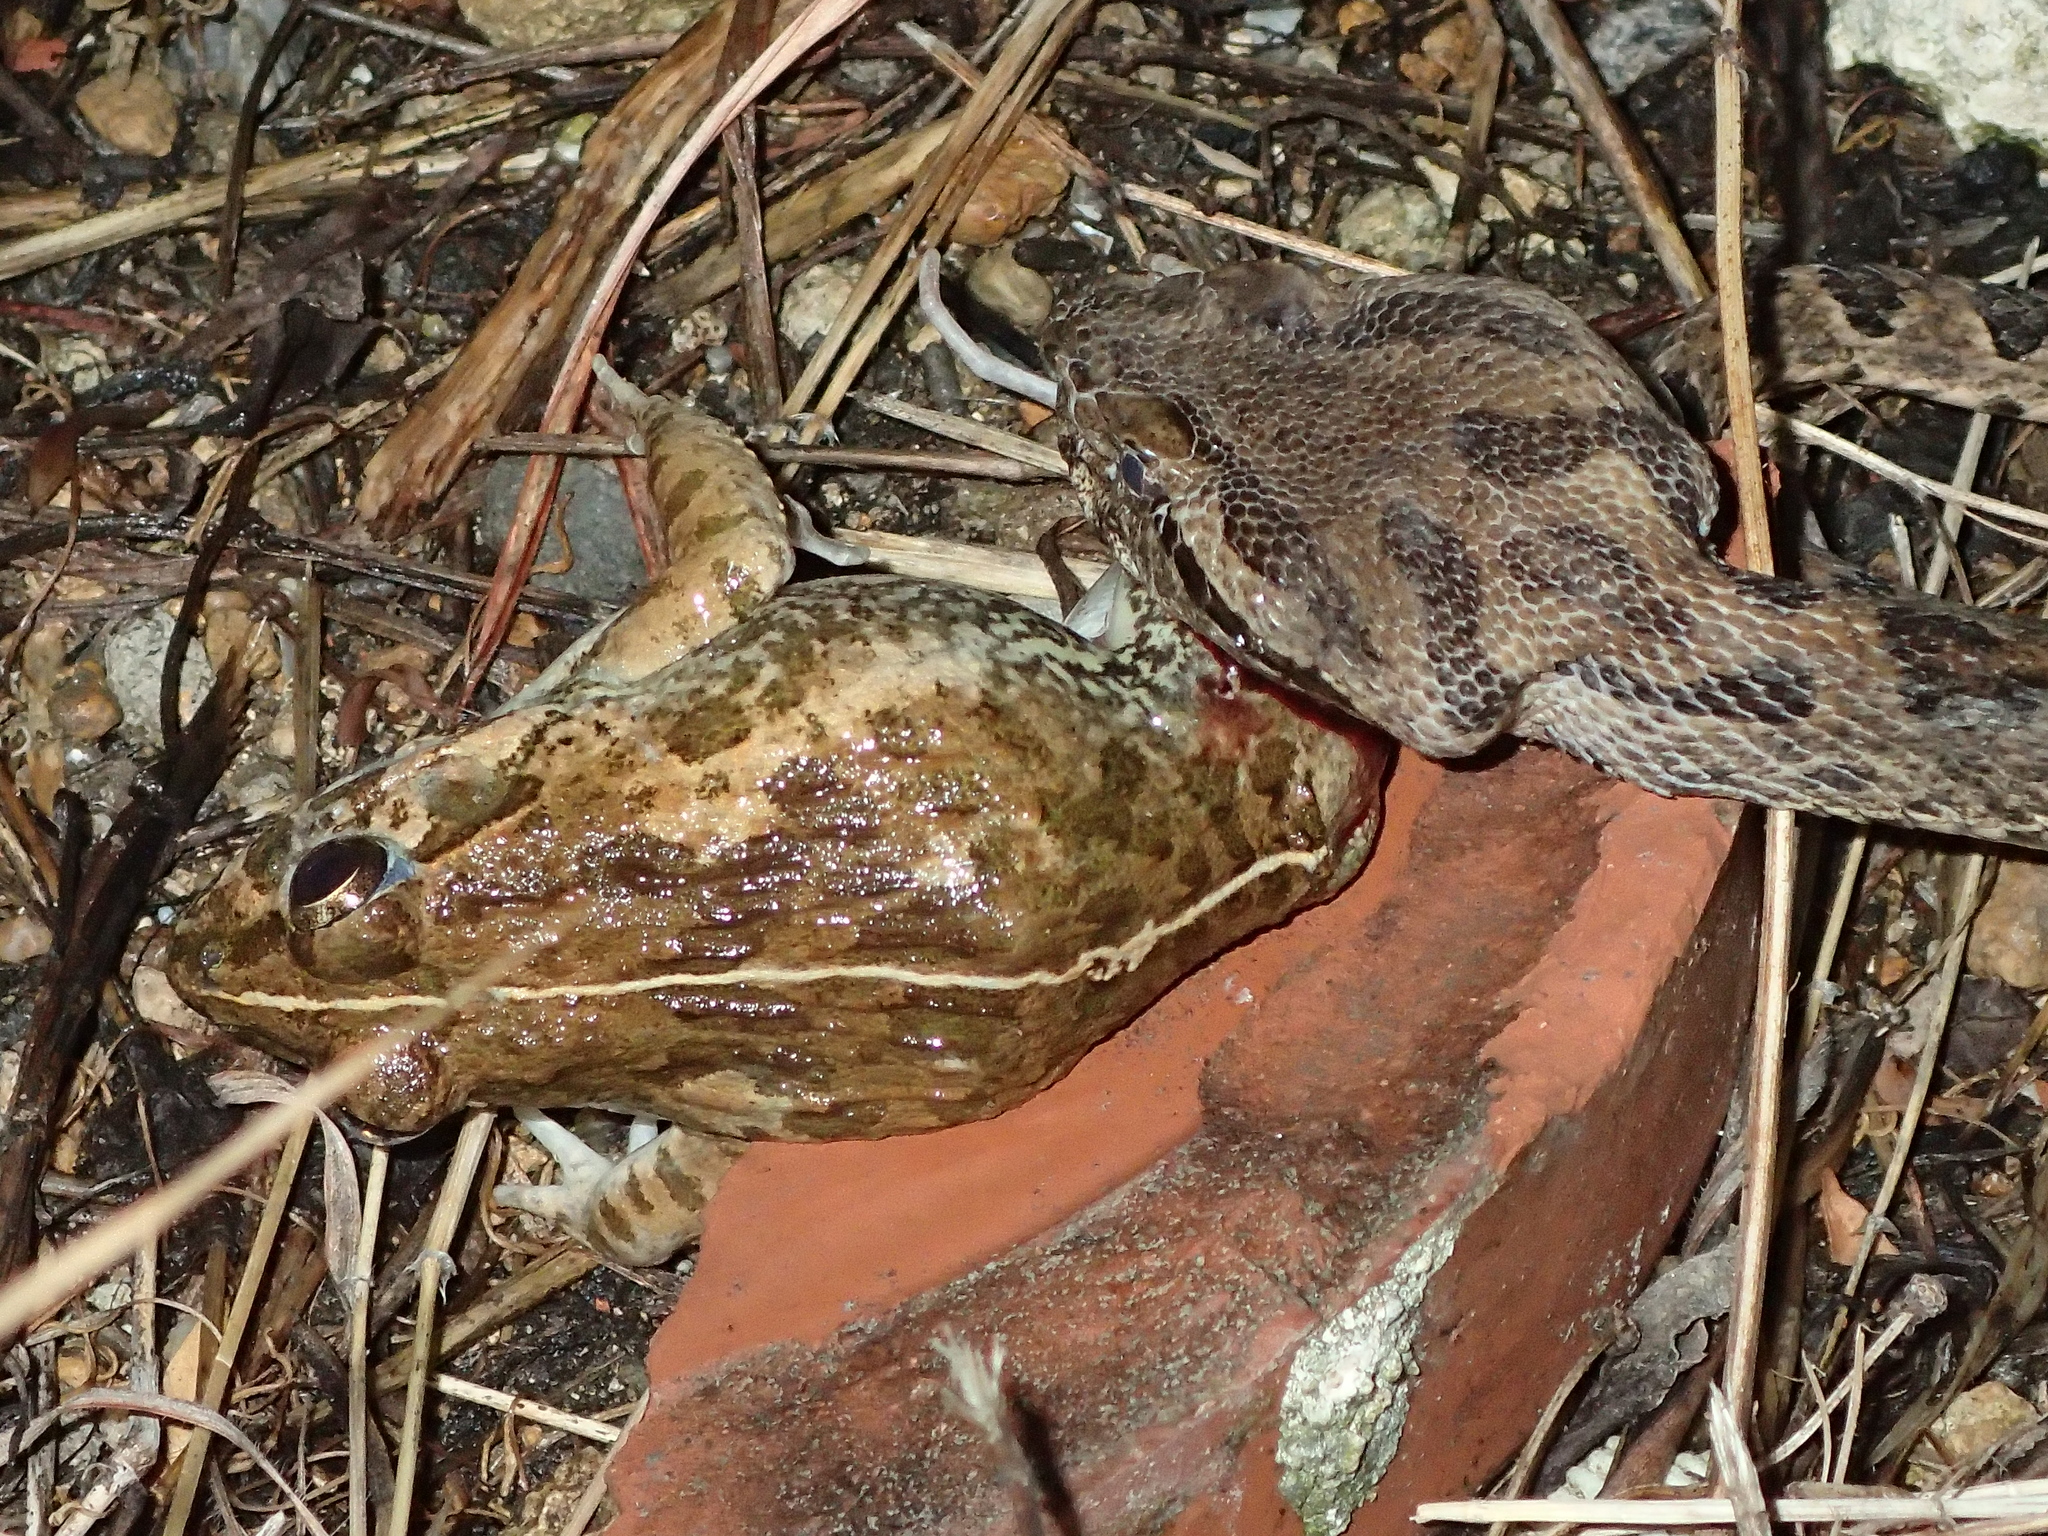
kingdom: Animalia
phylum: Chordata
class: Amphibia
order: Anura
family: Dicroglossidae
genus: Fejervarya
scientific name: Fejervarya sakishimensis
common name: Sakishima rice frog
